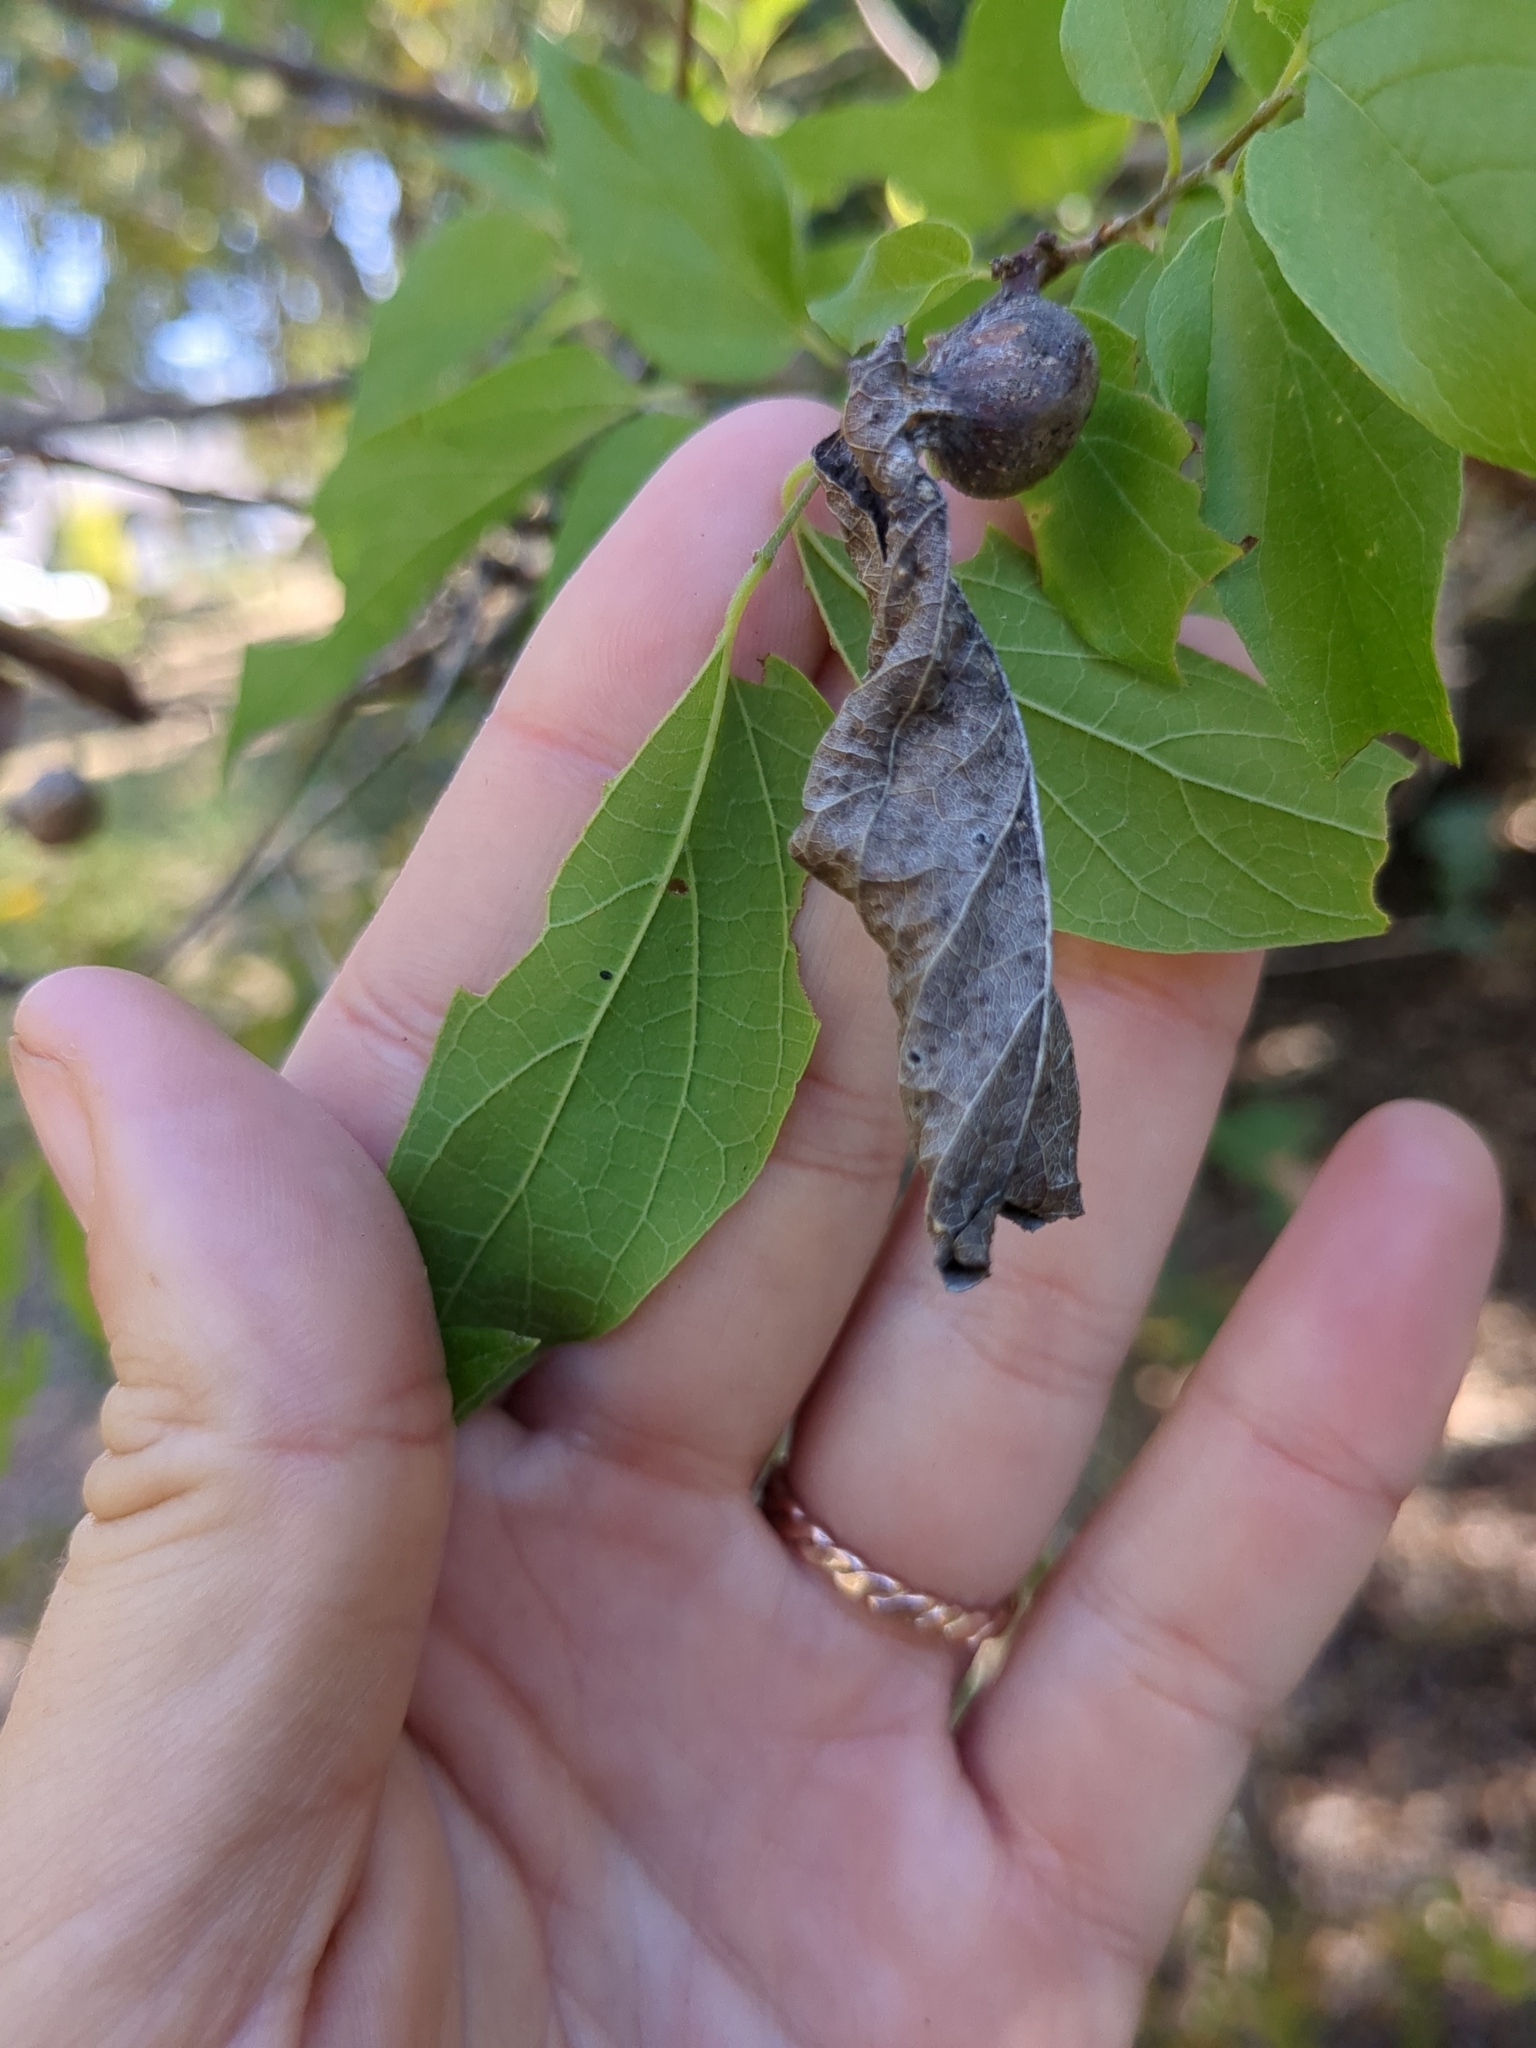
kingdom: Plantae
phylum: Tracheophyta
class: Magnoliopsida
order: Rosales
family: Cannabaceae
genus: Celtis
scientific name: Celtis reticulata
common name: Netleaf hackberry
